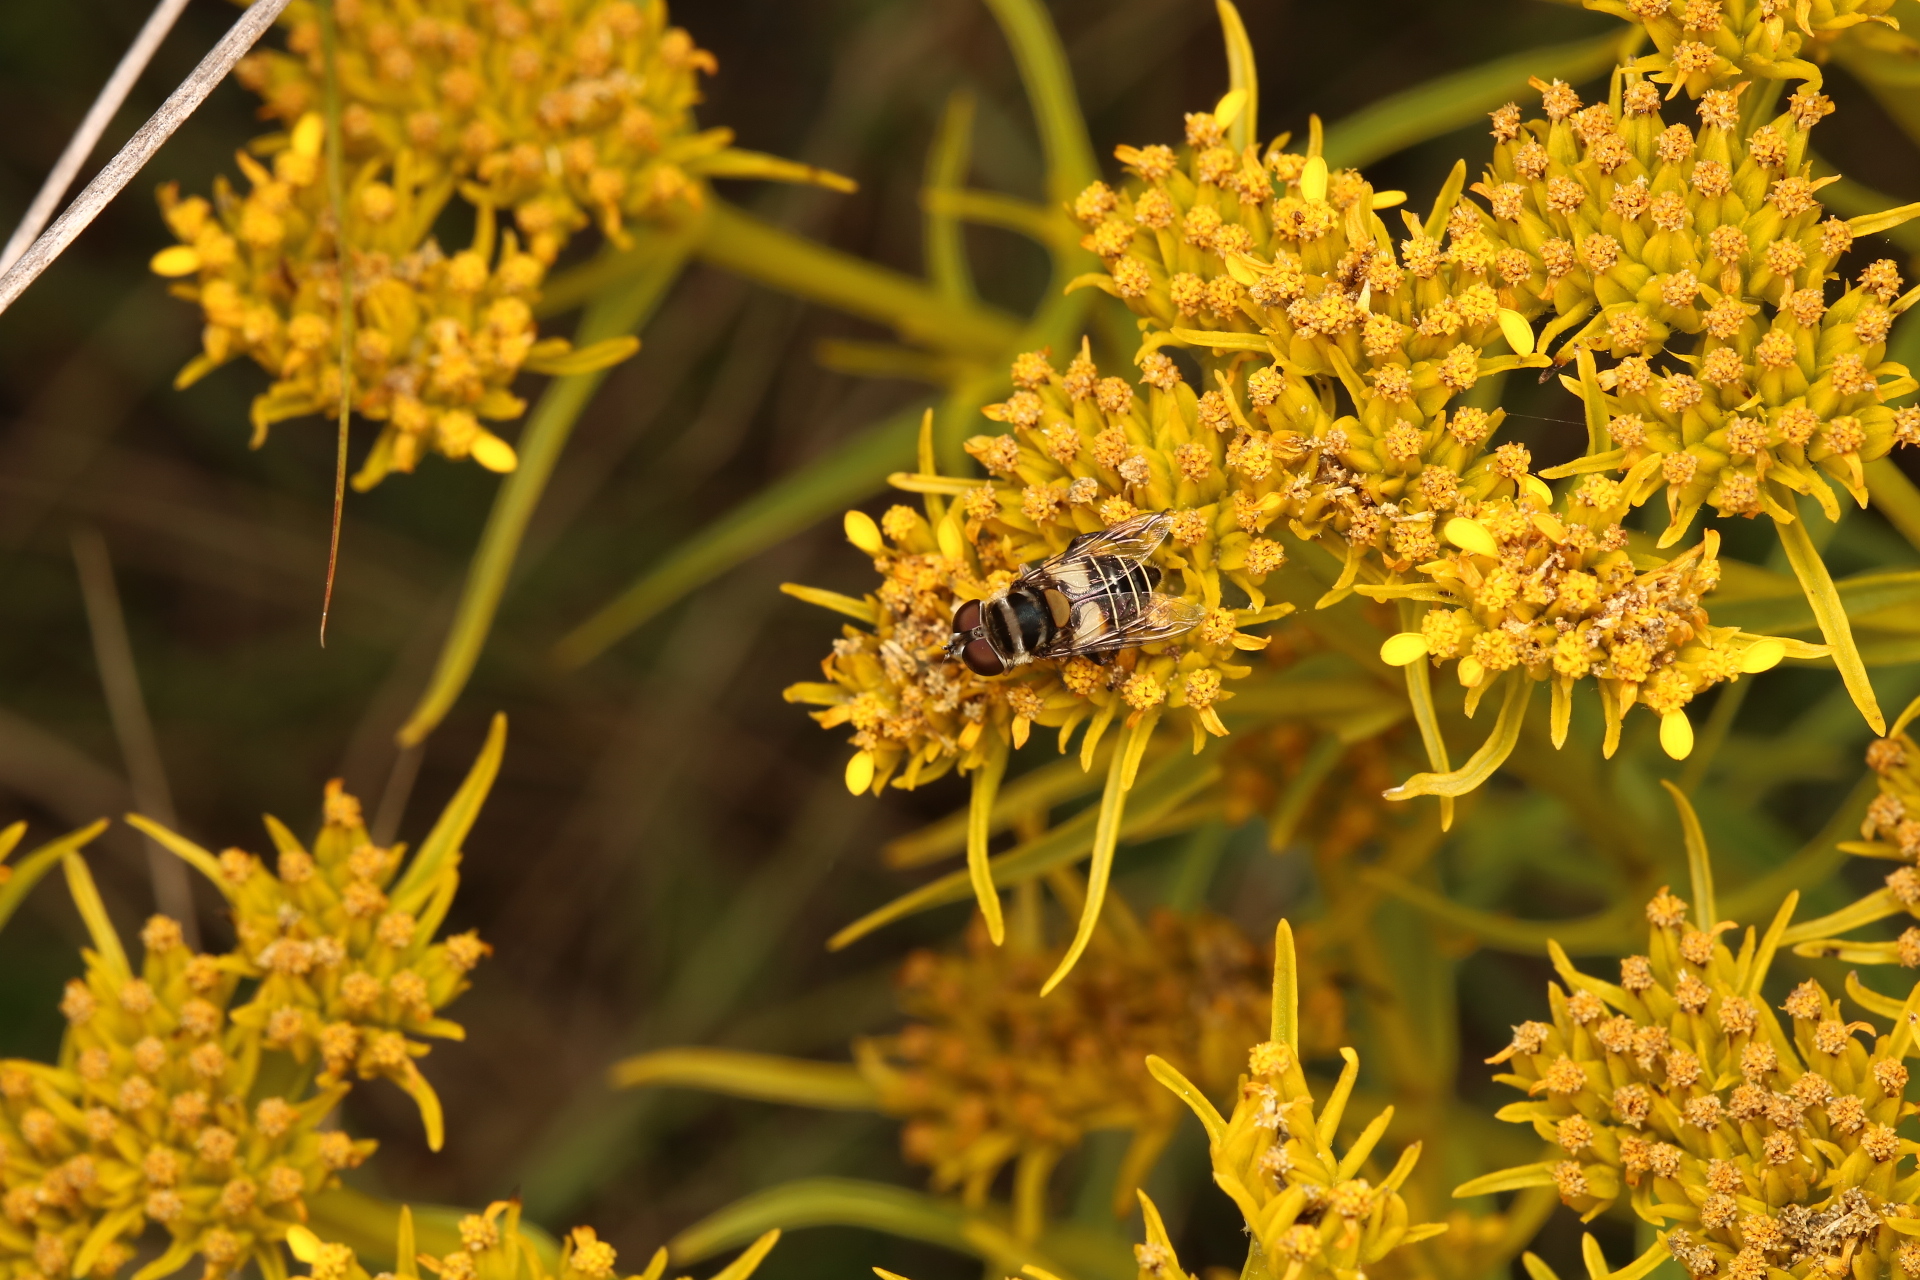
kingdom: Animalia
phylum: Arthropoda
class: Insecta
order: Diptera
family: Syrphidae
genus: Palpada
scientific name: Palpada albifrons
